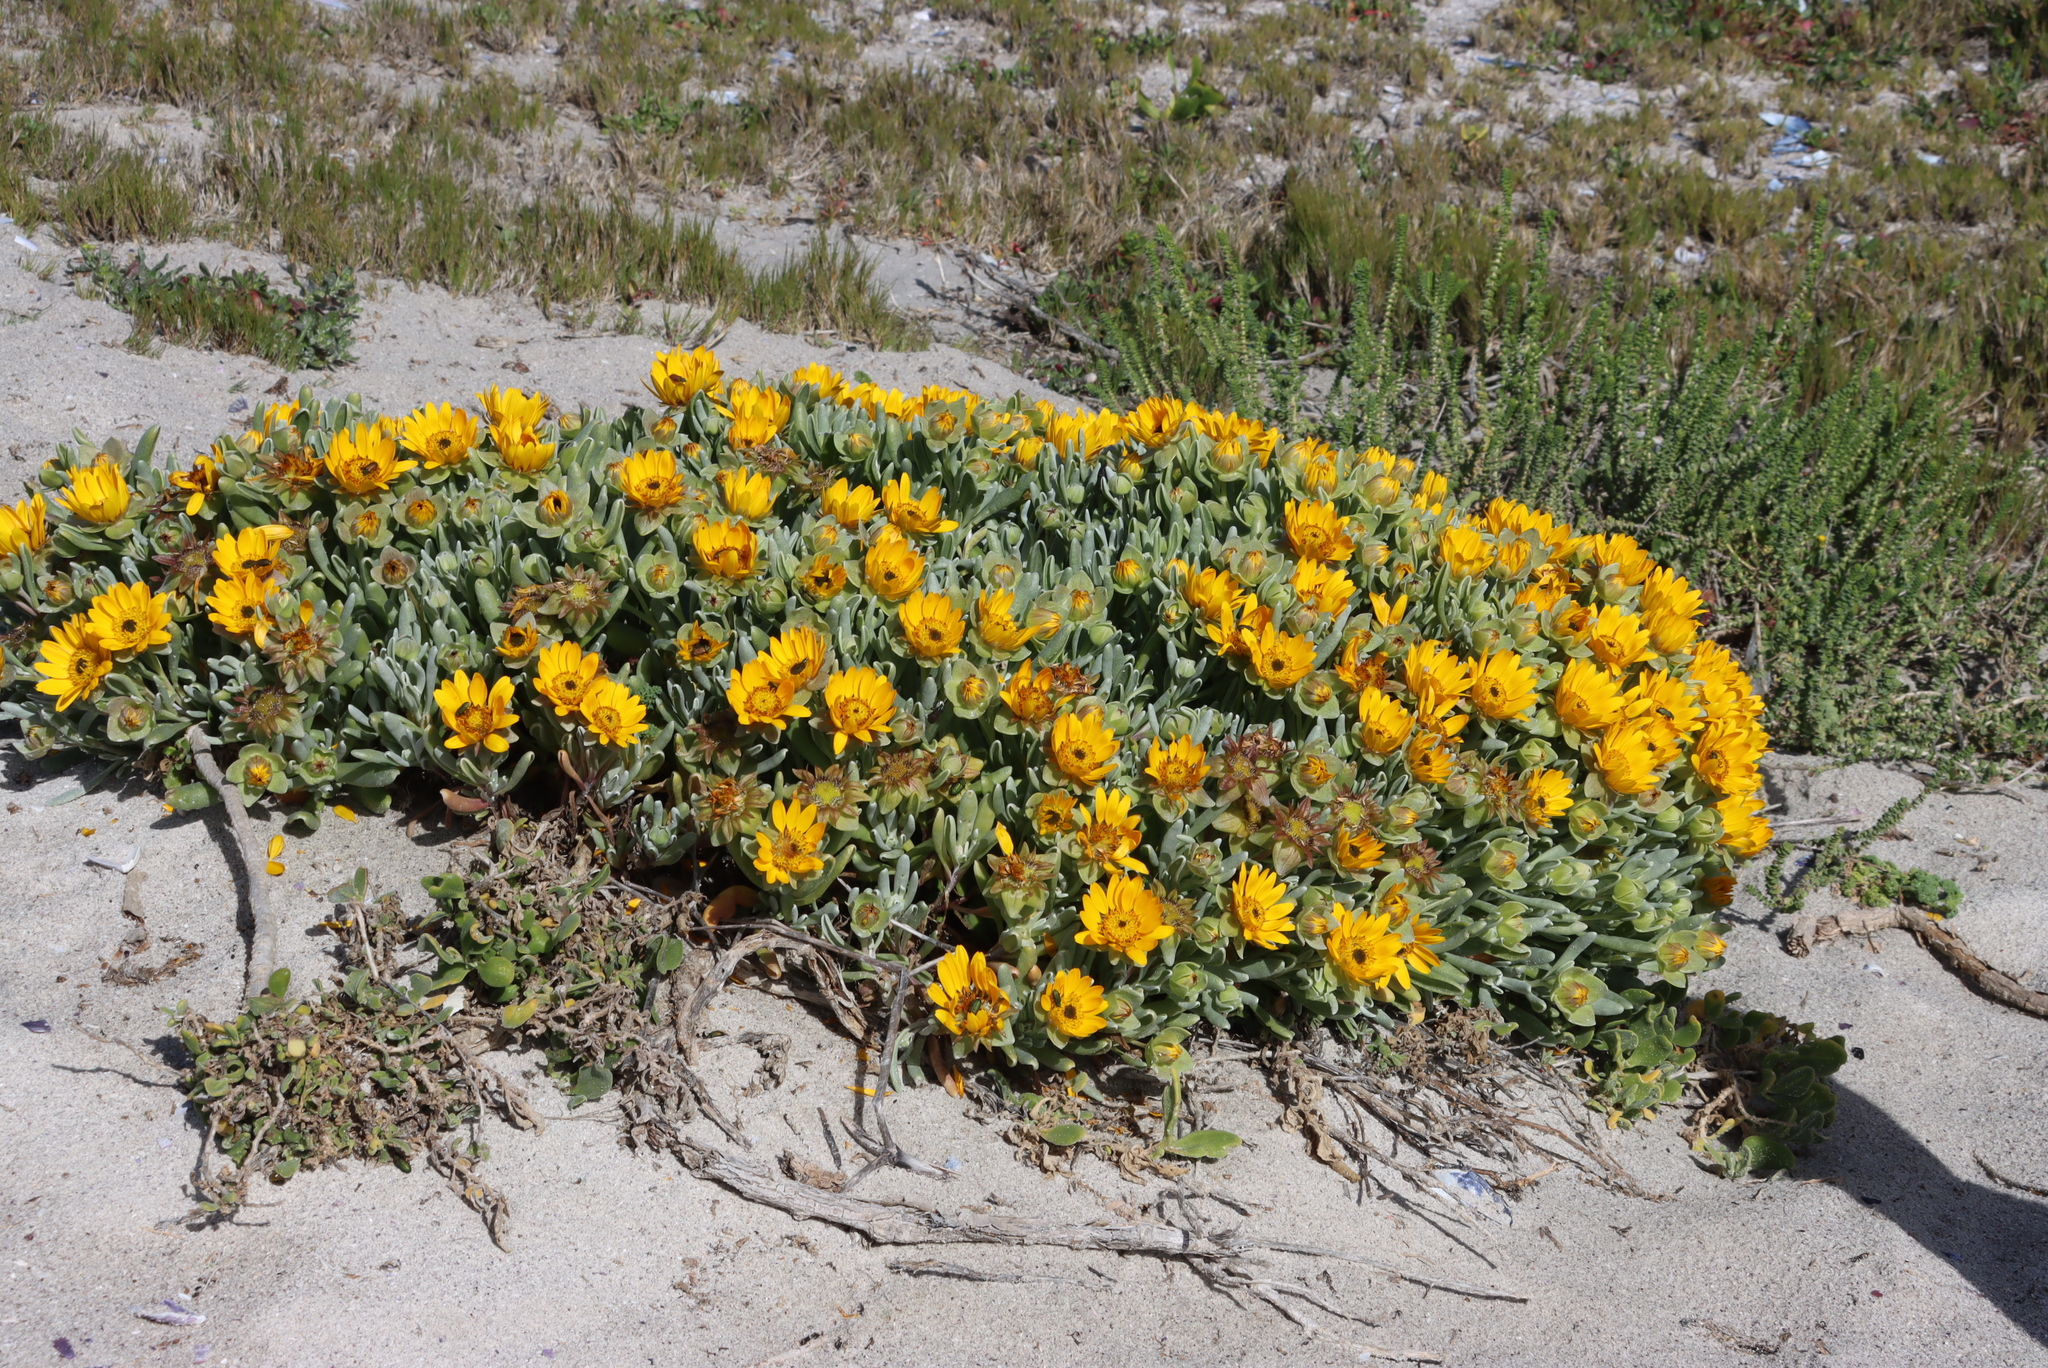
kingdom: Plantae
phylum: Tracheophyta
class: Magnoliopsida
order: Asterales
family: Asteraceae
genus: Didelta
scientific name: Didelta carnosa
